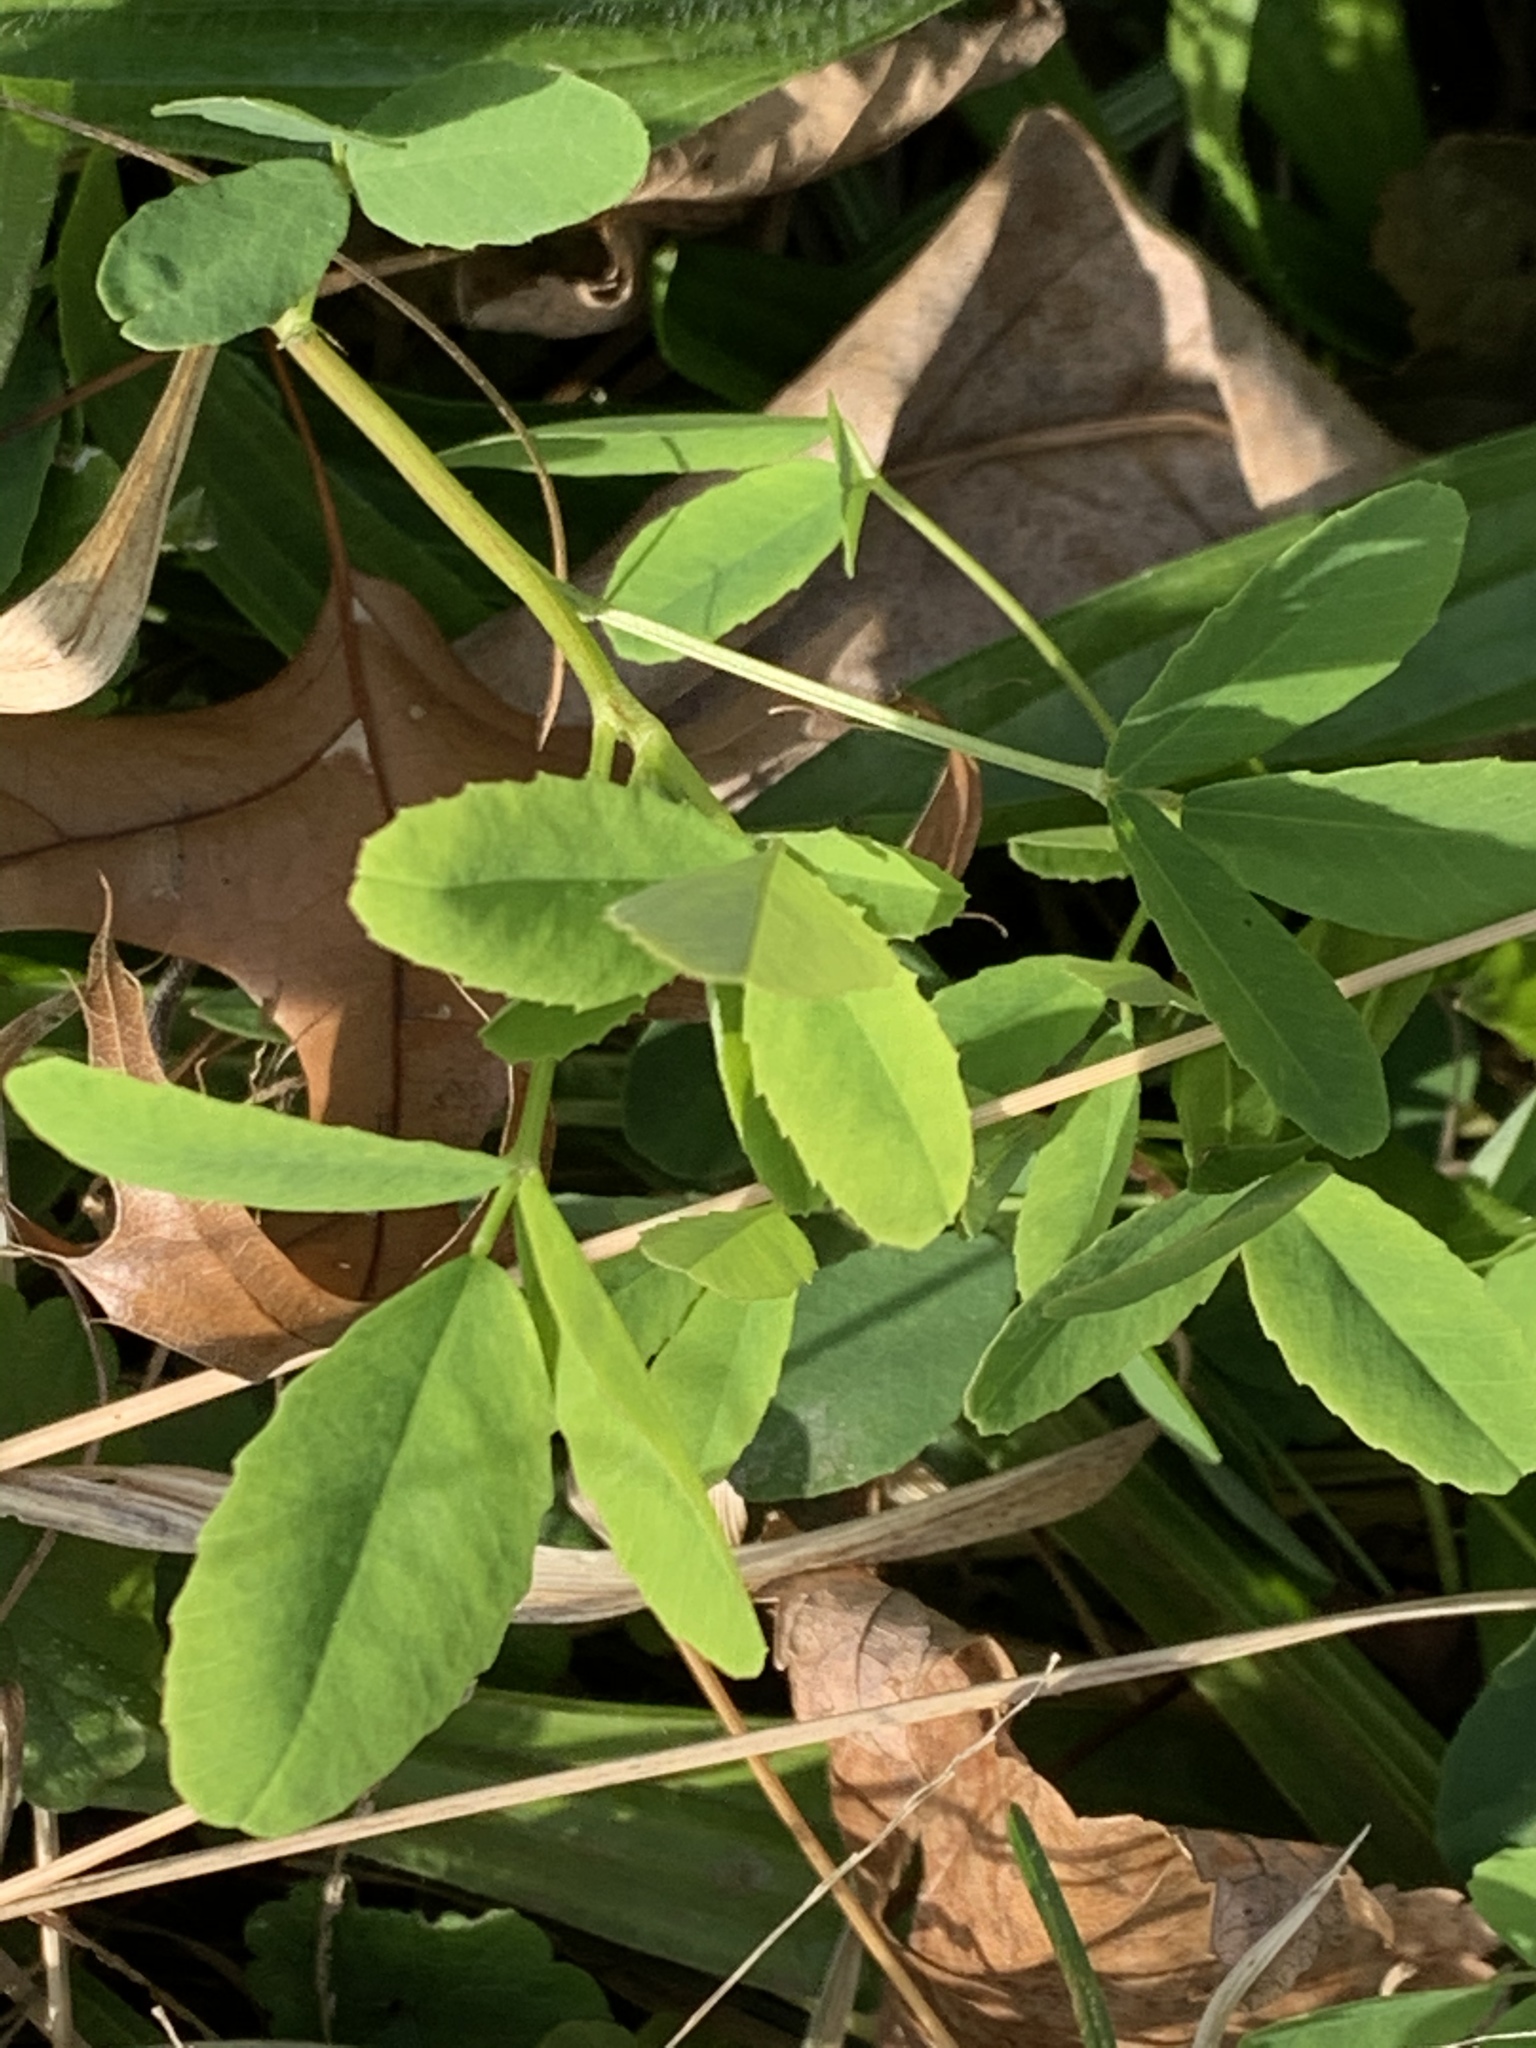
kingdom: Plantae
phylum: Tracheophyta
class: Magnoliopsida
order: Fabales
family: Fabaceae
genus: Melilotus
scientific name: Melilotus
